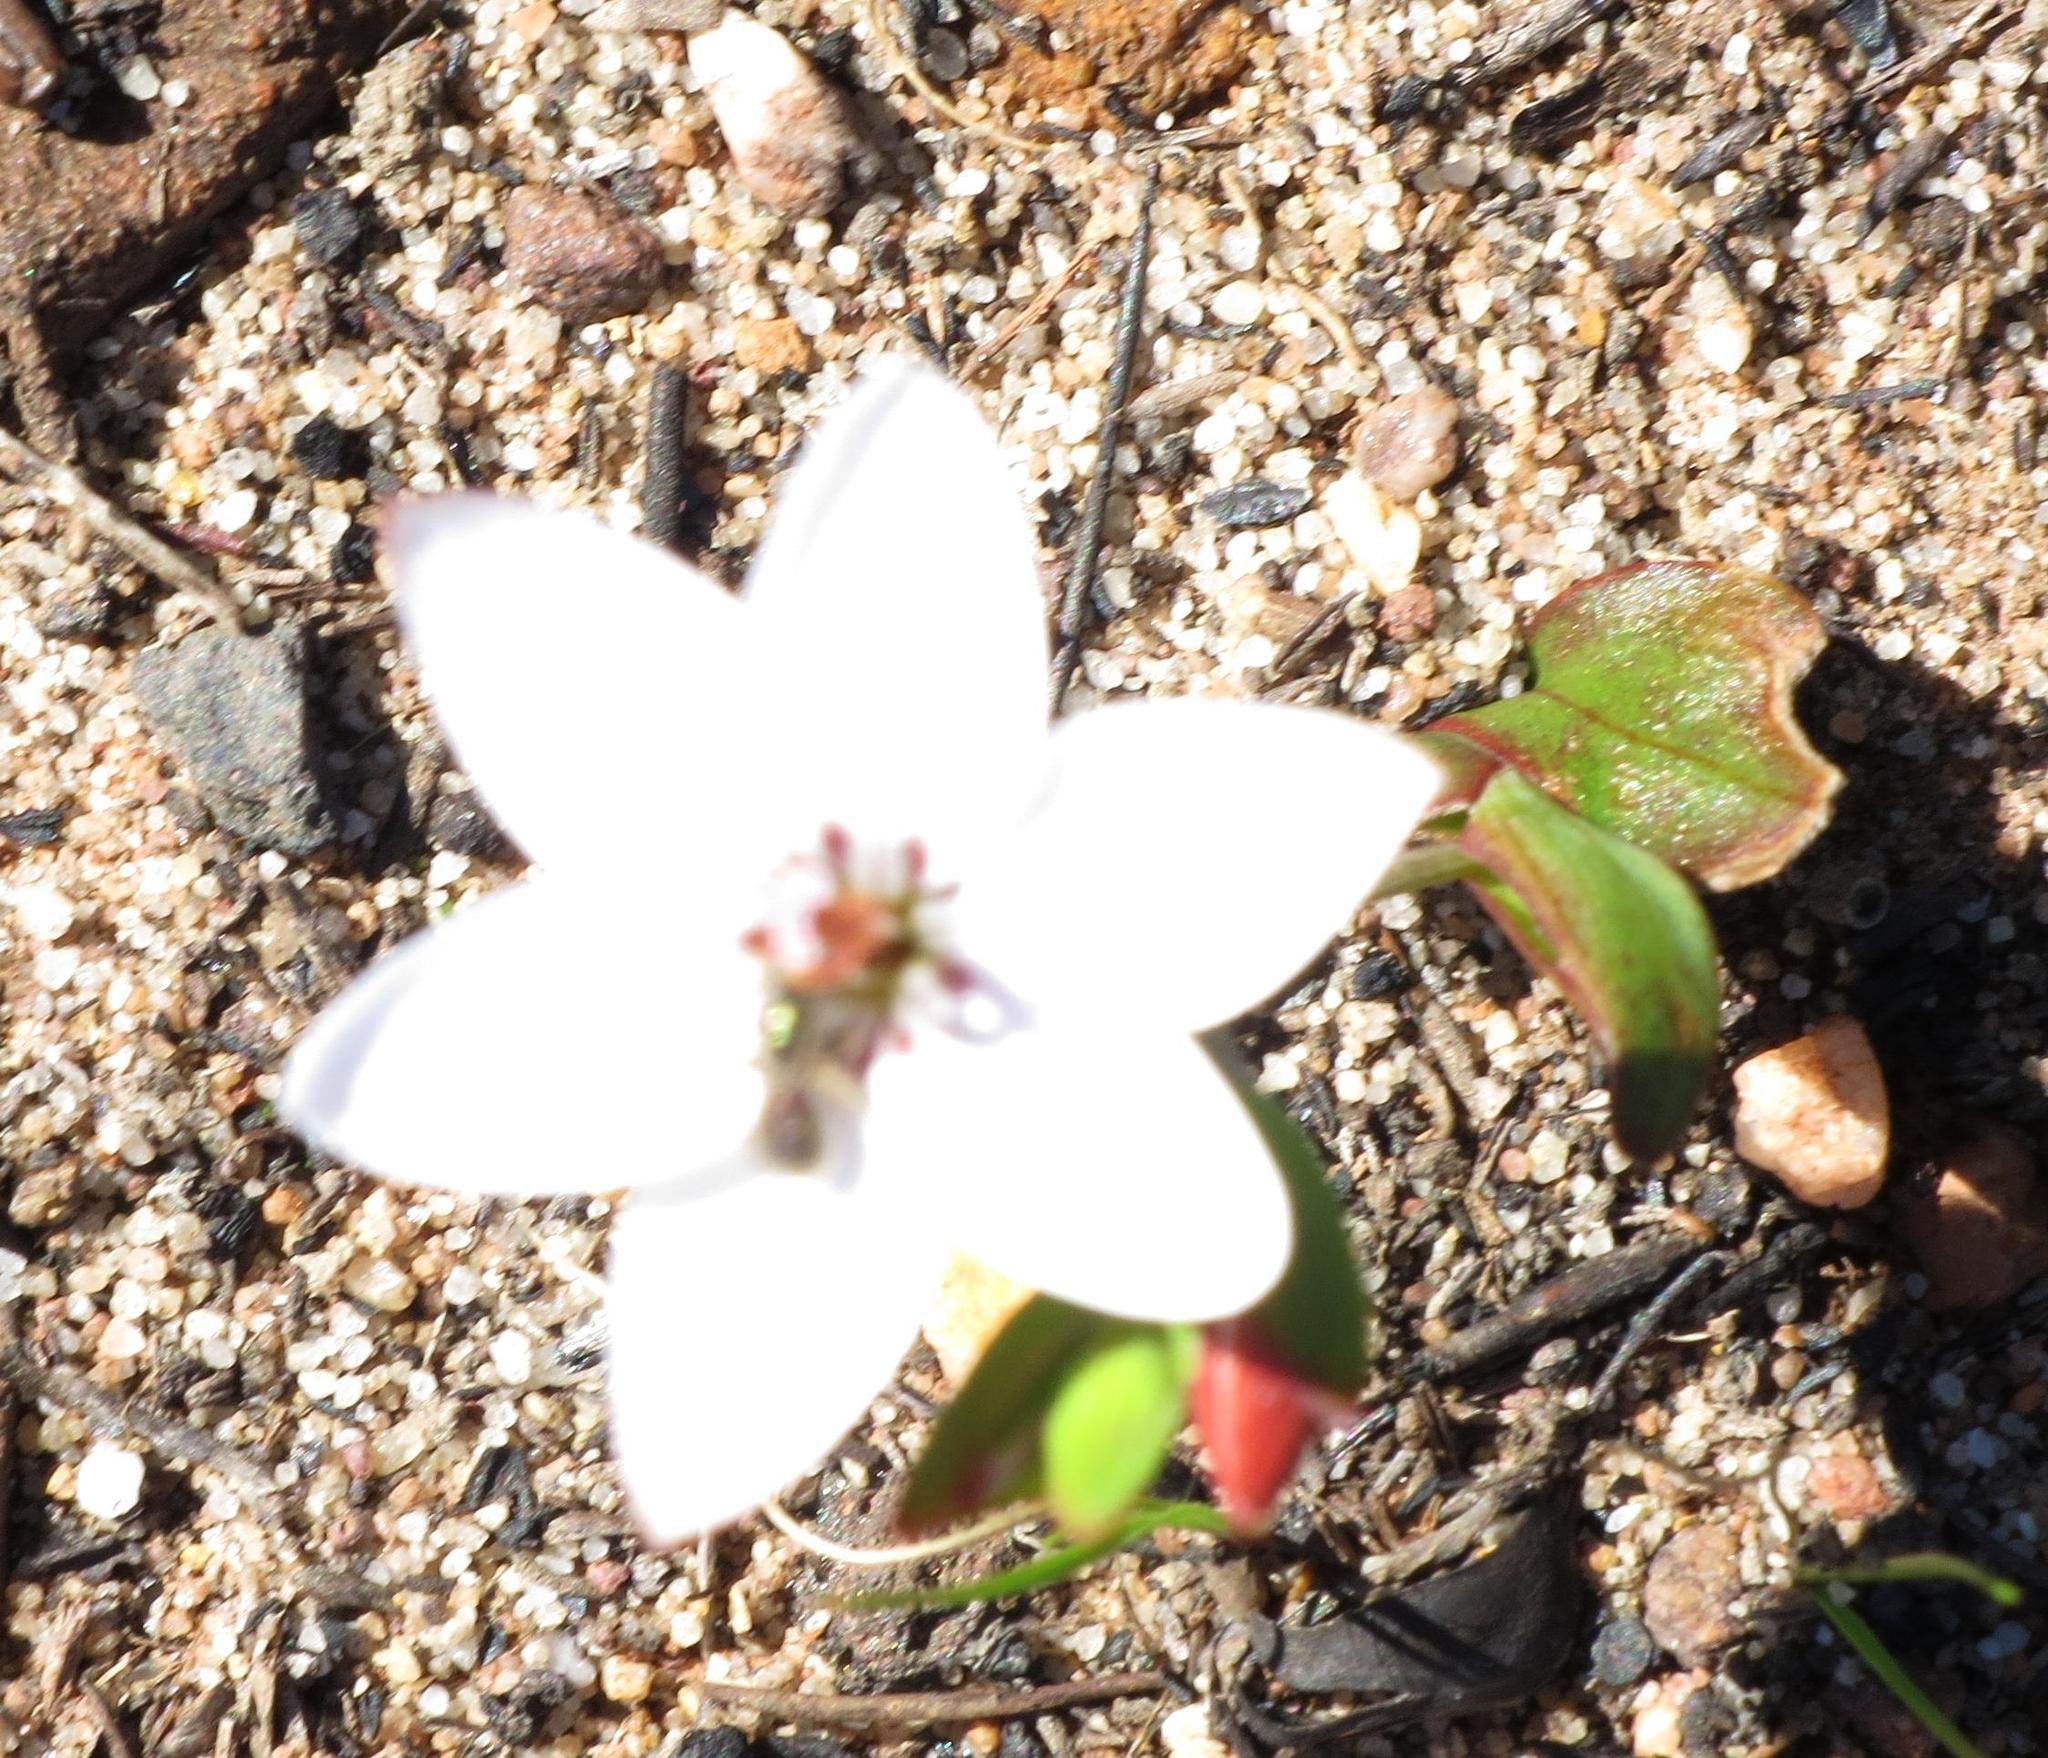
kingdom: Plantae
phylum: Tracheophyta
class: Liliopsida
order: Asparagales
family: Iridaceae
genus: Geissorhiza
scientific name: Geissorhiza ovata
